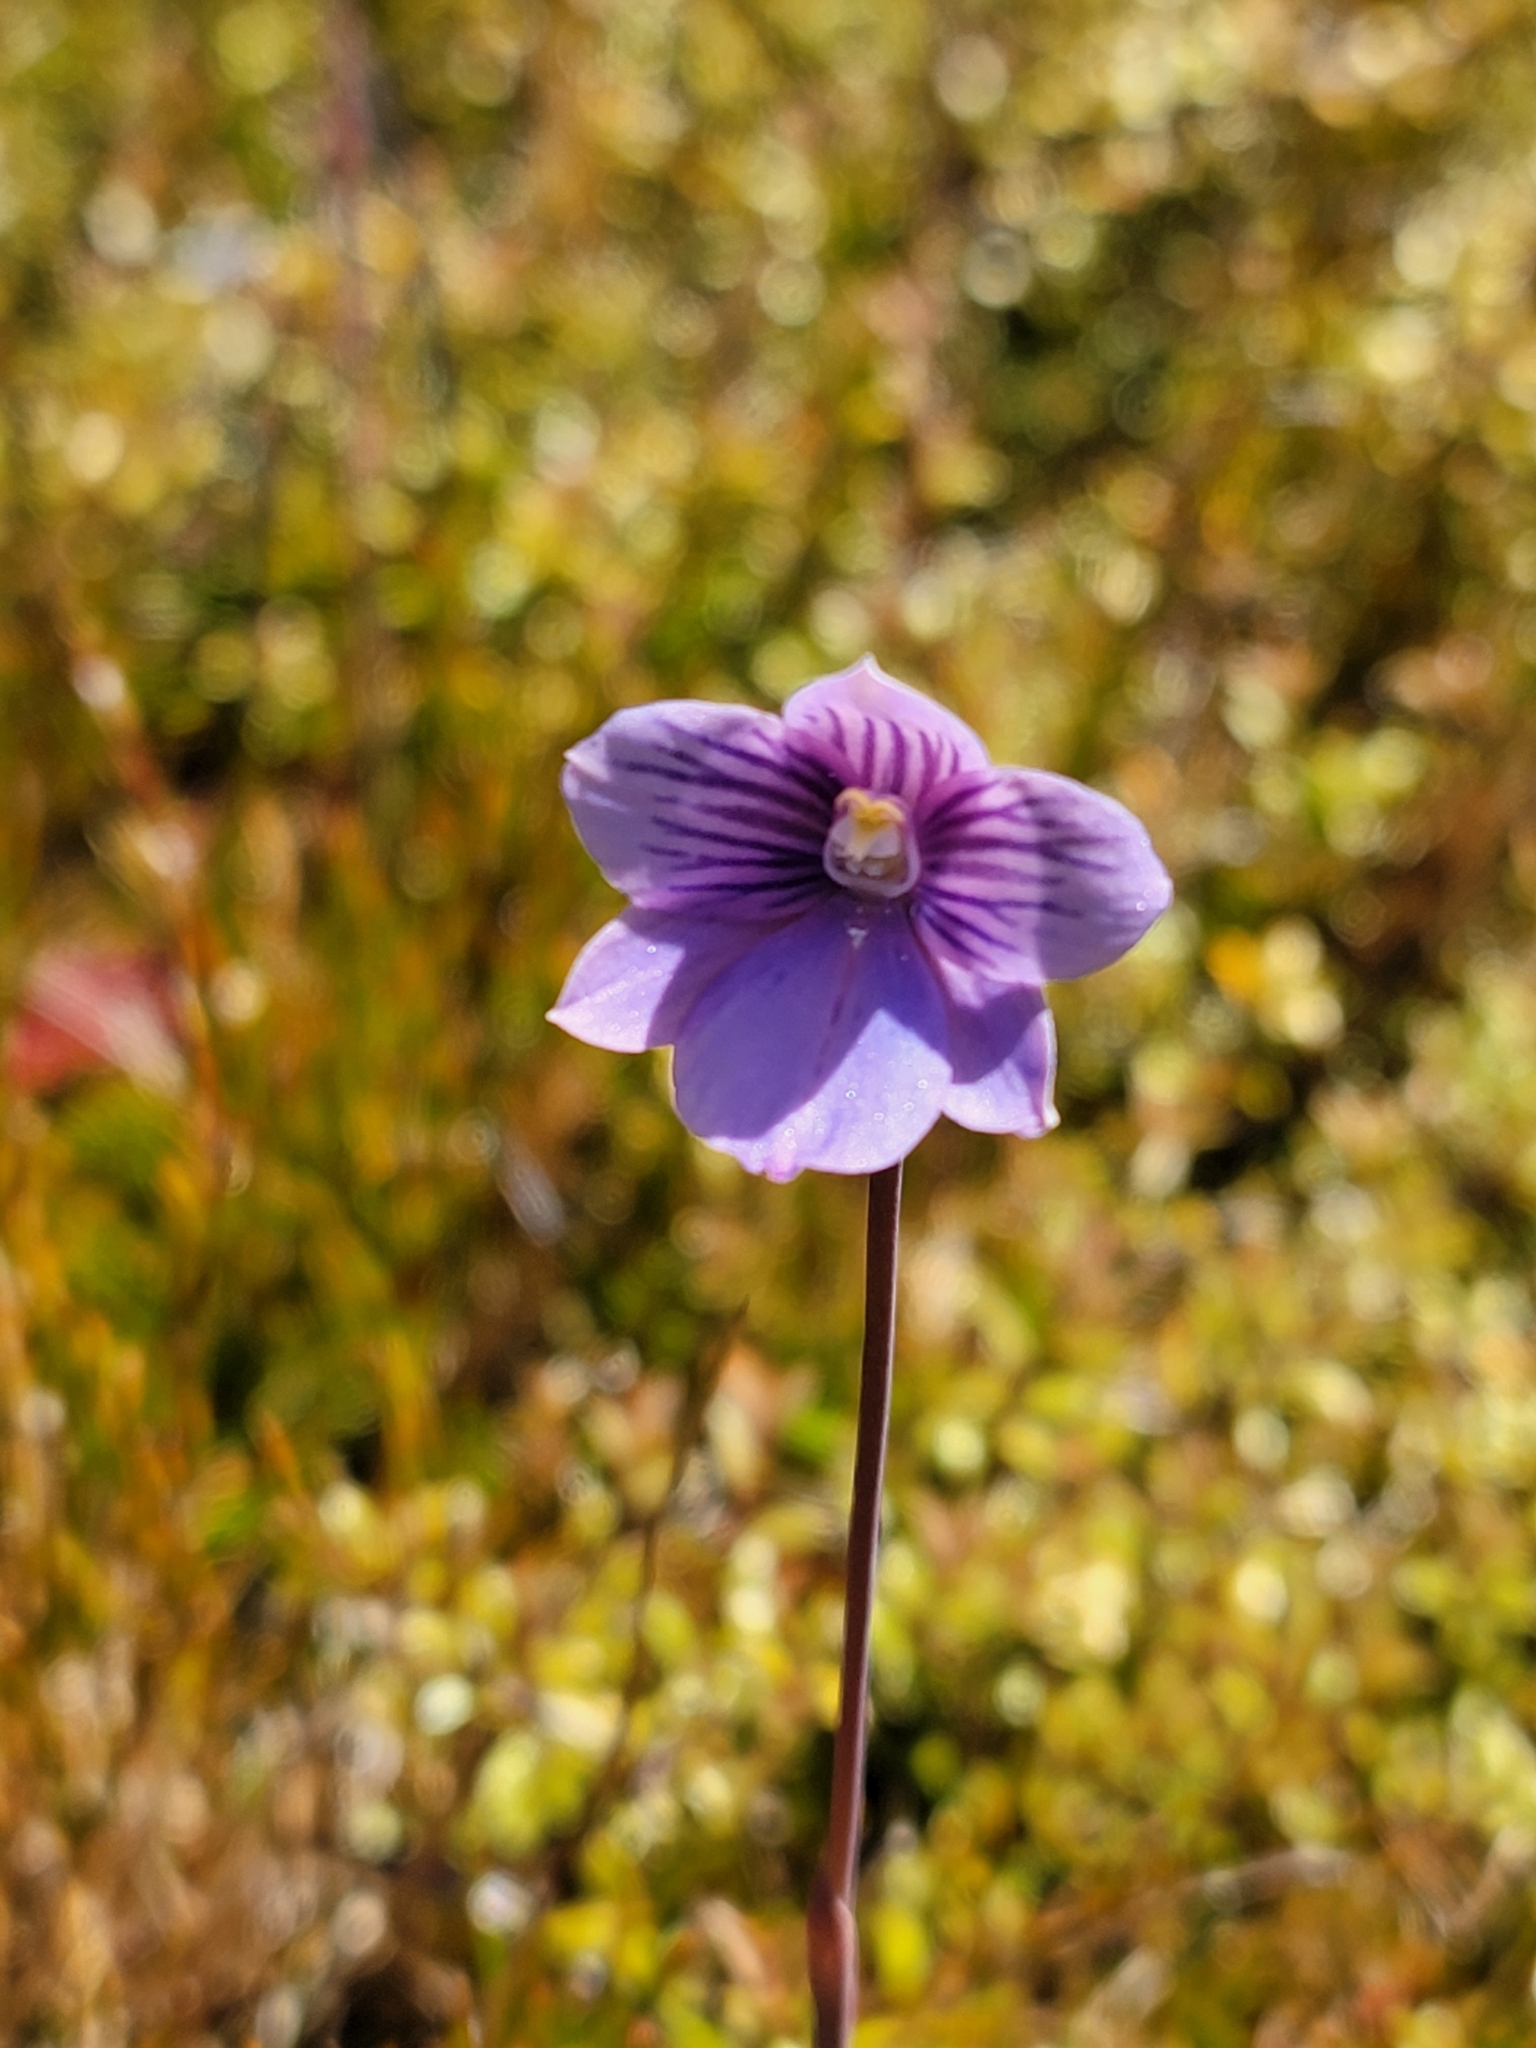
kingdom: Plantae
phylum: Tracheophyta
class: Liliopsida
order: Asparagales
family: Orchidaceae
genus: Thelymitra
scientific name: Thelymitra cyanea
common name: Blue sun-orchid
